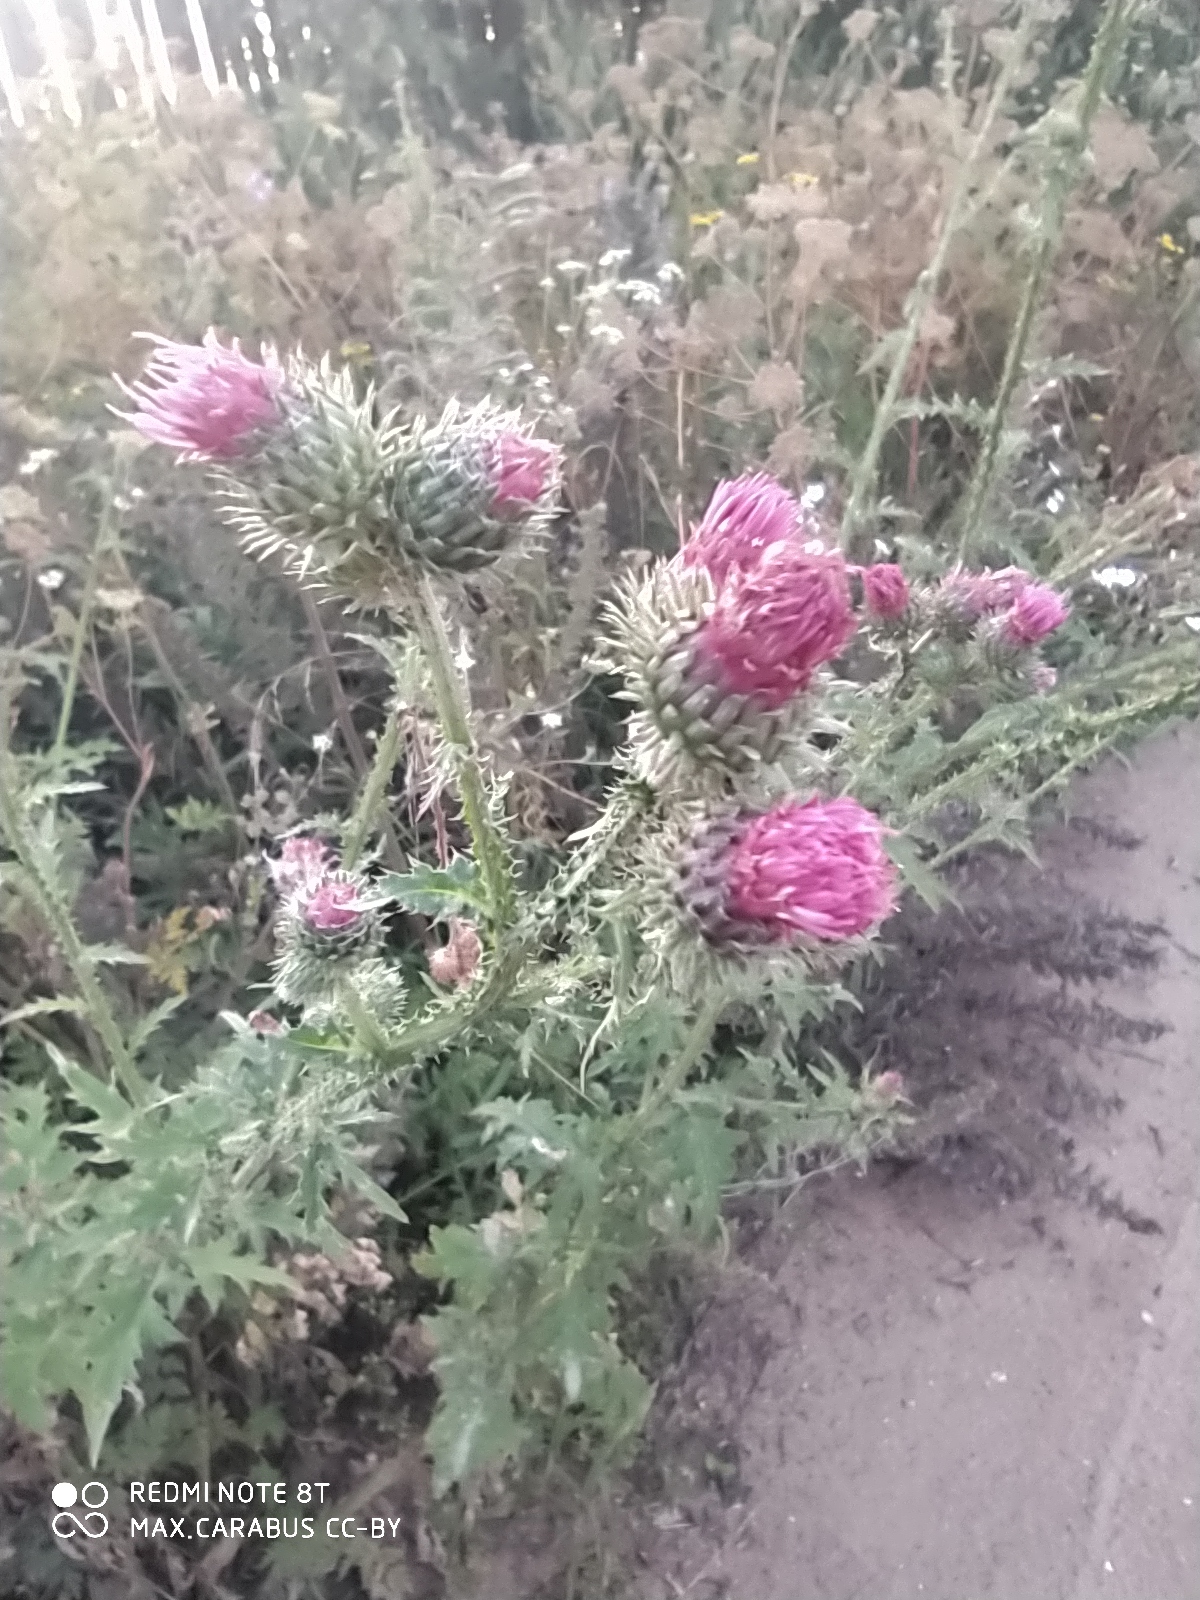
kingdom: Plantae
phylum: Tracheophyta
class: Magnoliopsida
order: Asterales
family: Asteraceae
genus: Carduus
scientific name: Carduus crispus
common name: Welted thistle
